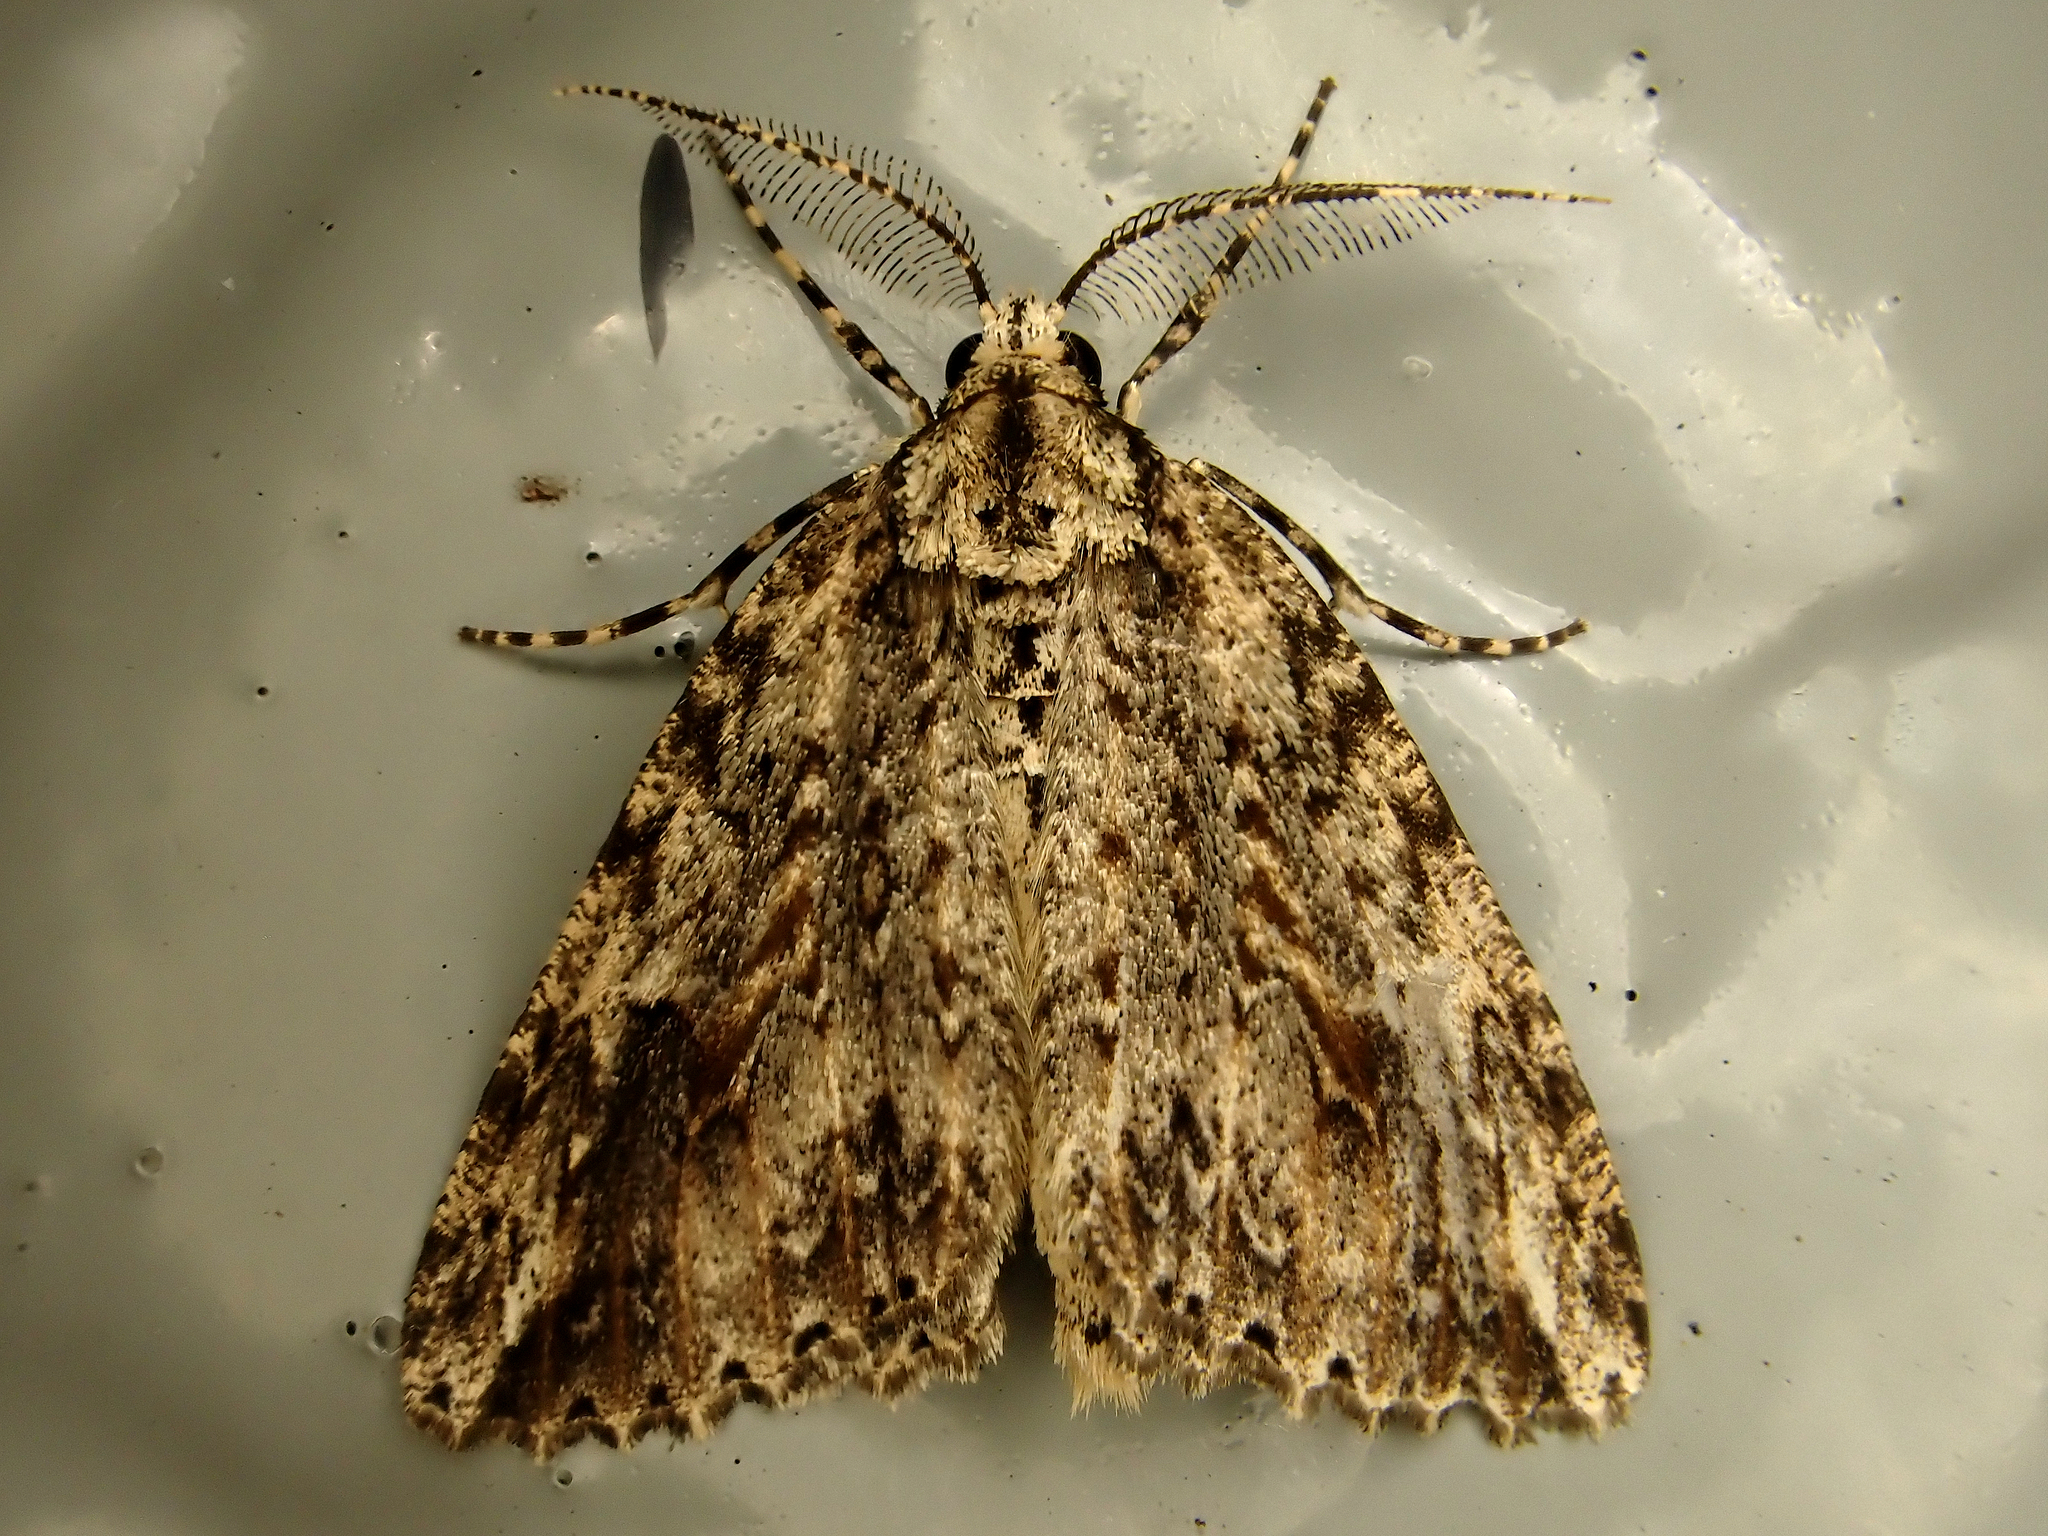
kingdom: Animalia
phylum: Arthropoda
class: Insecta
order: Lepidoptera
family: Geometridae
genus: Pseudocoremia
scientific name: Pseudocoremia rudisata
